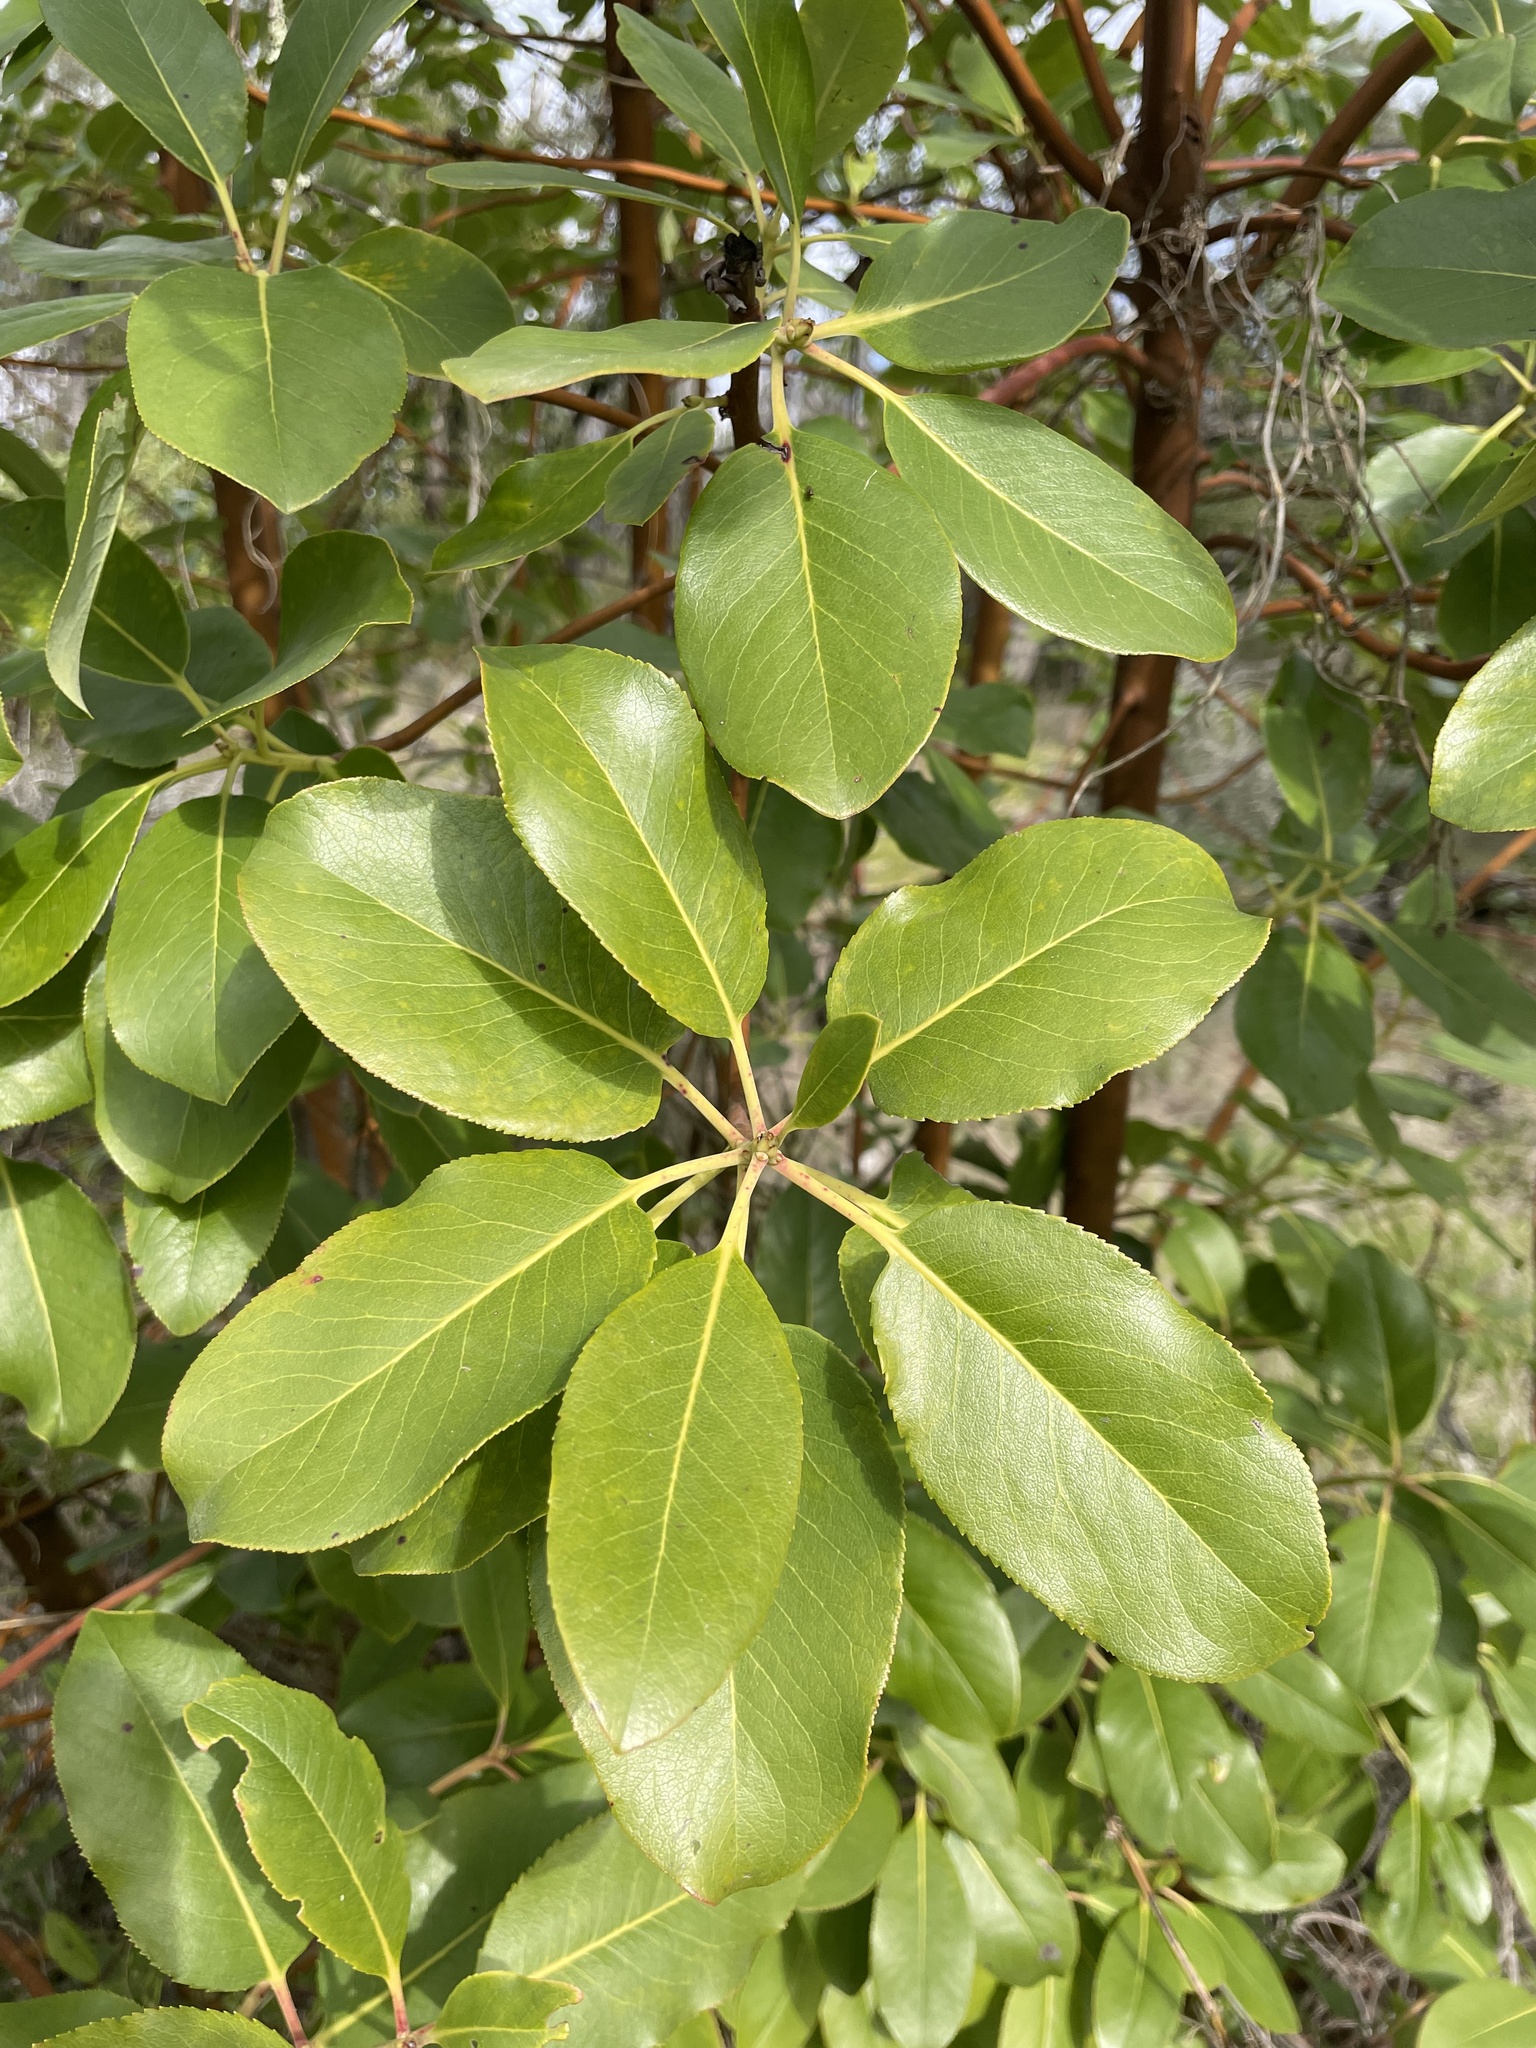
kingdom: Plantae
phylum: Tracheophyta
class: Magnoliopsida
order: Ericales
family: Ericaceae
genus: Arbutus
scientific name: Arbutus menziesii
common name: Pacific madrone
